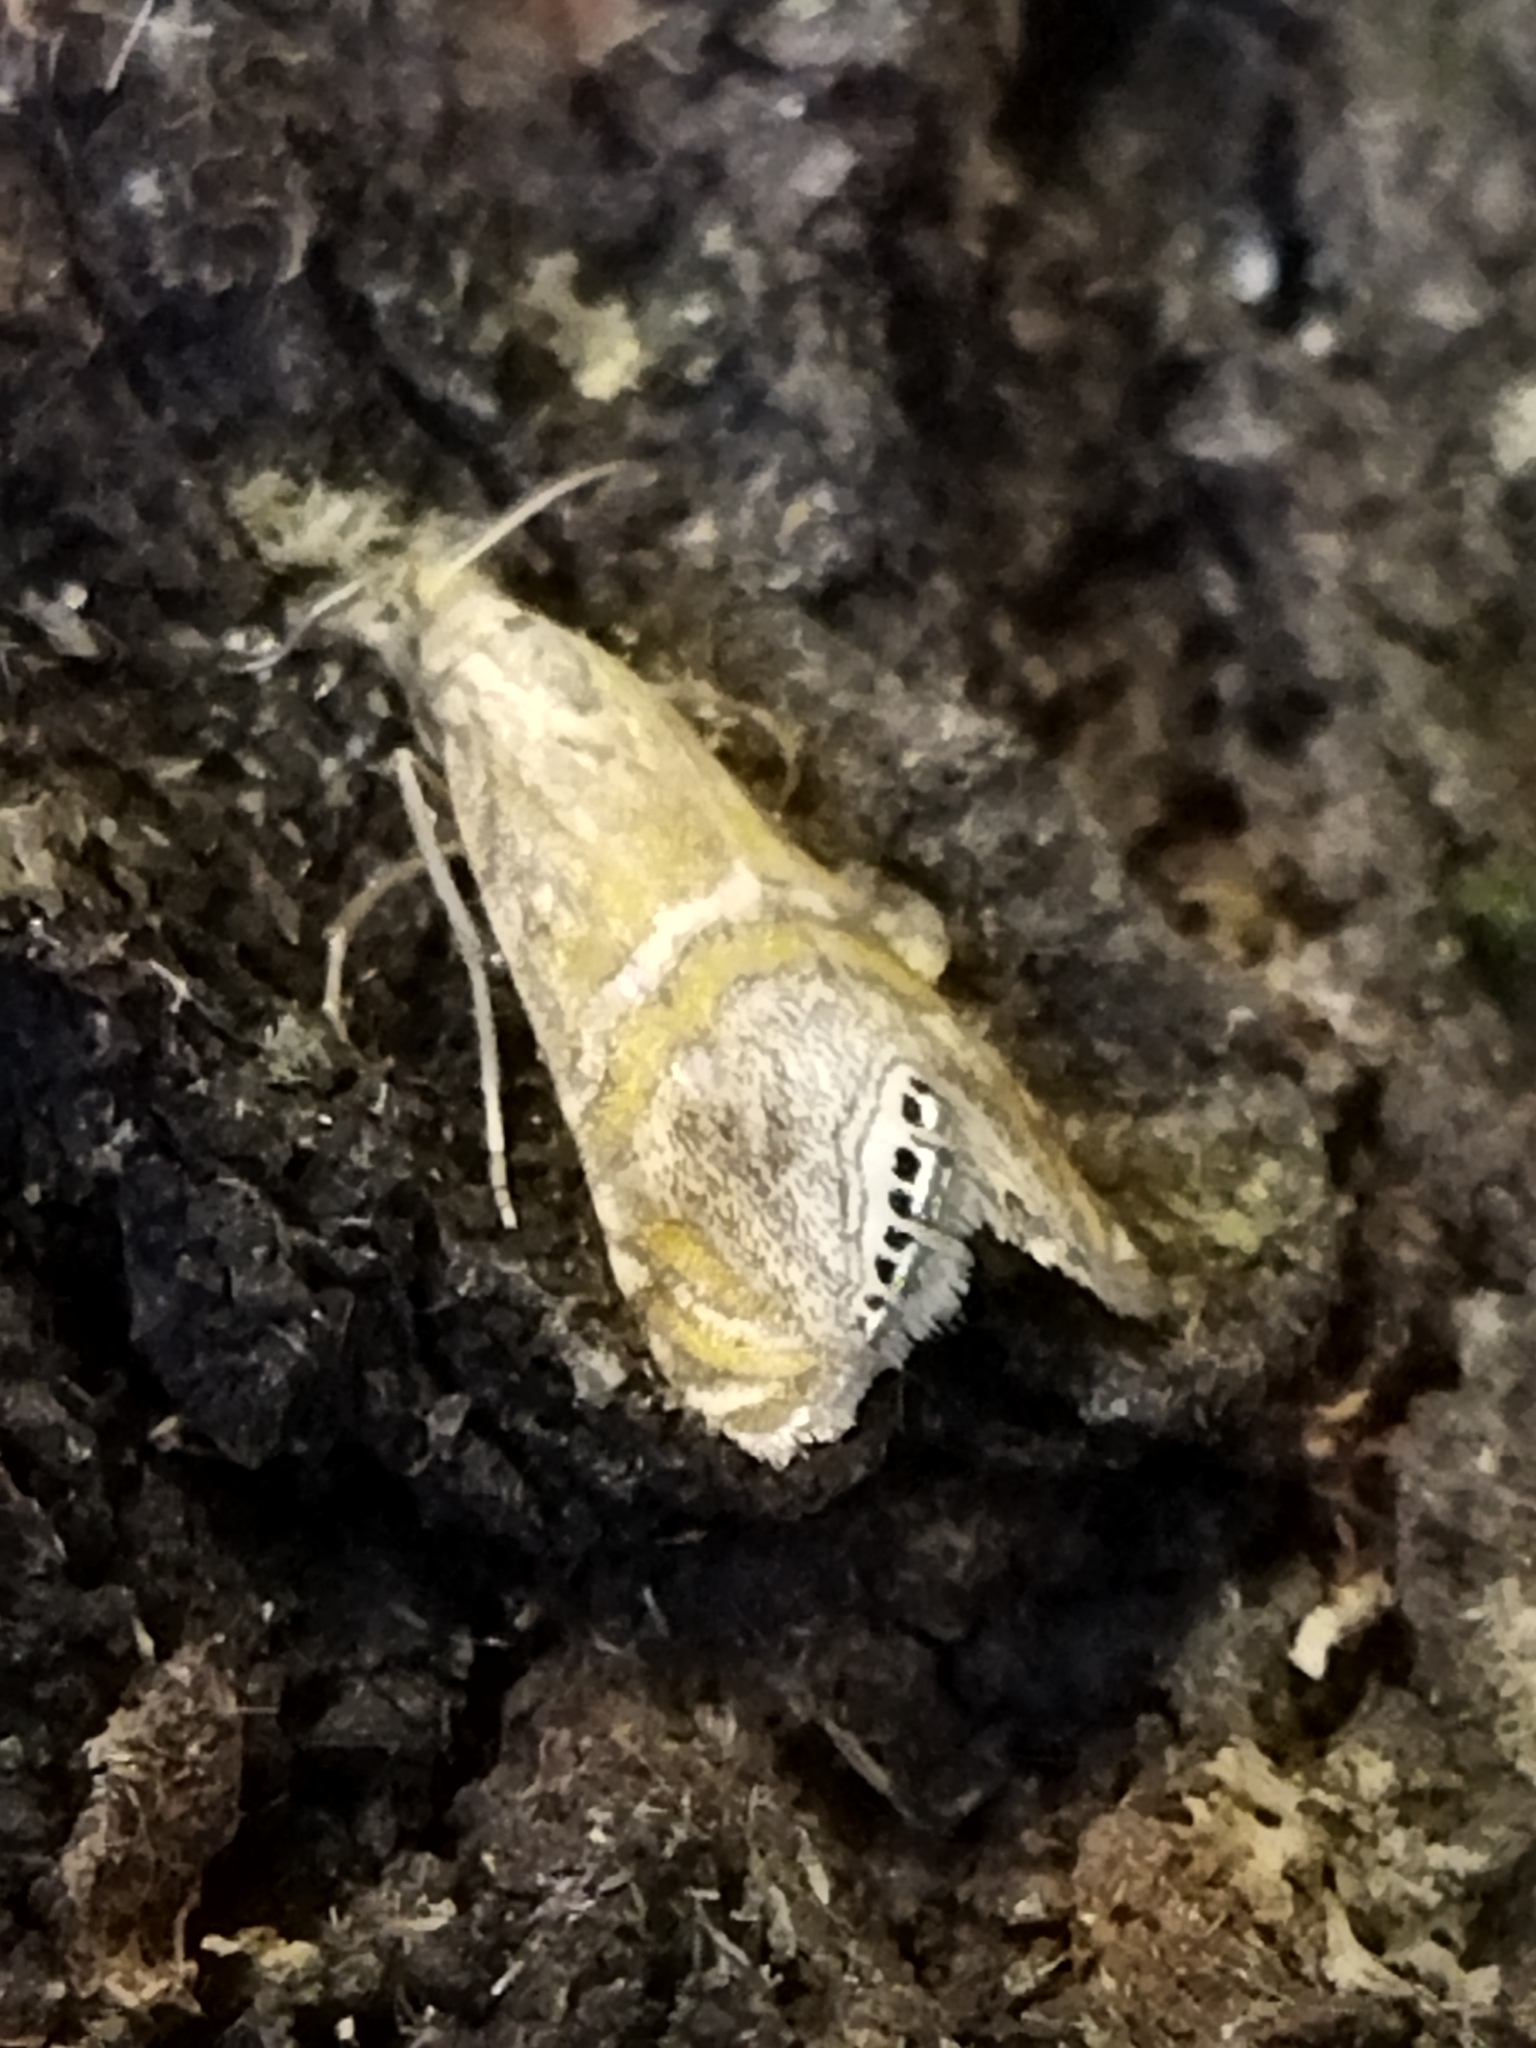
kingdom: Animalia
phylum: Arthropoda
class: Insecta
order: Lepidoptera
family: Crambidae
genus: Euchromius
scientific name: Euchromius bella
